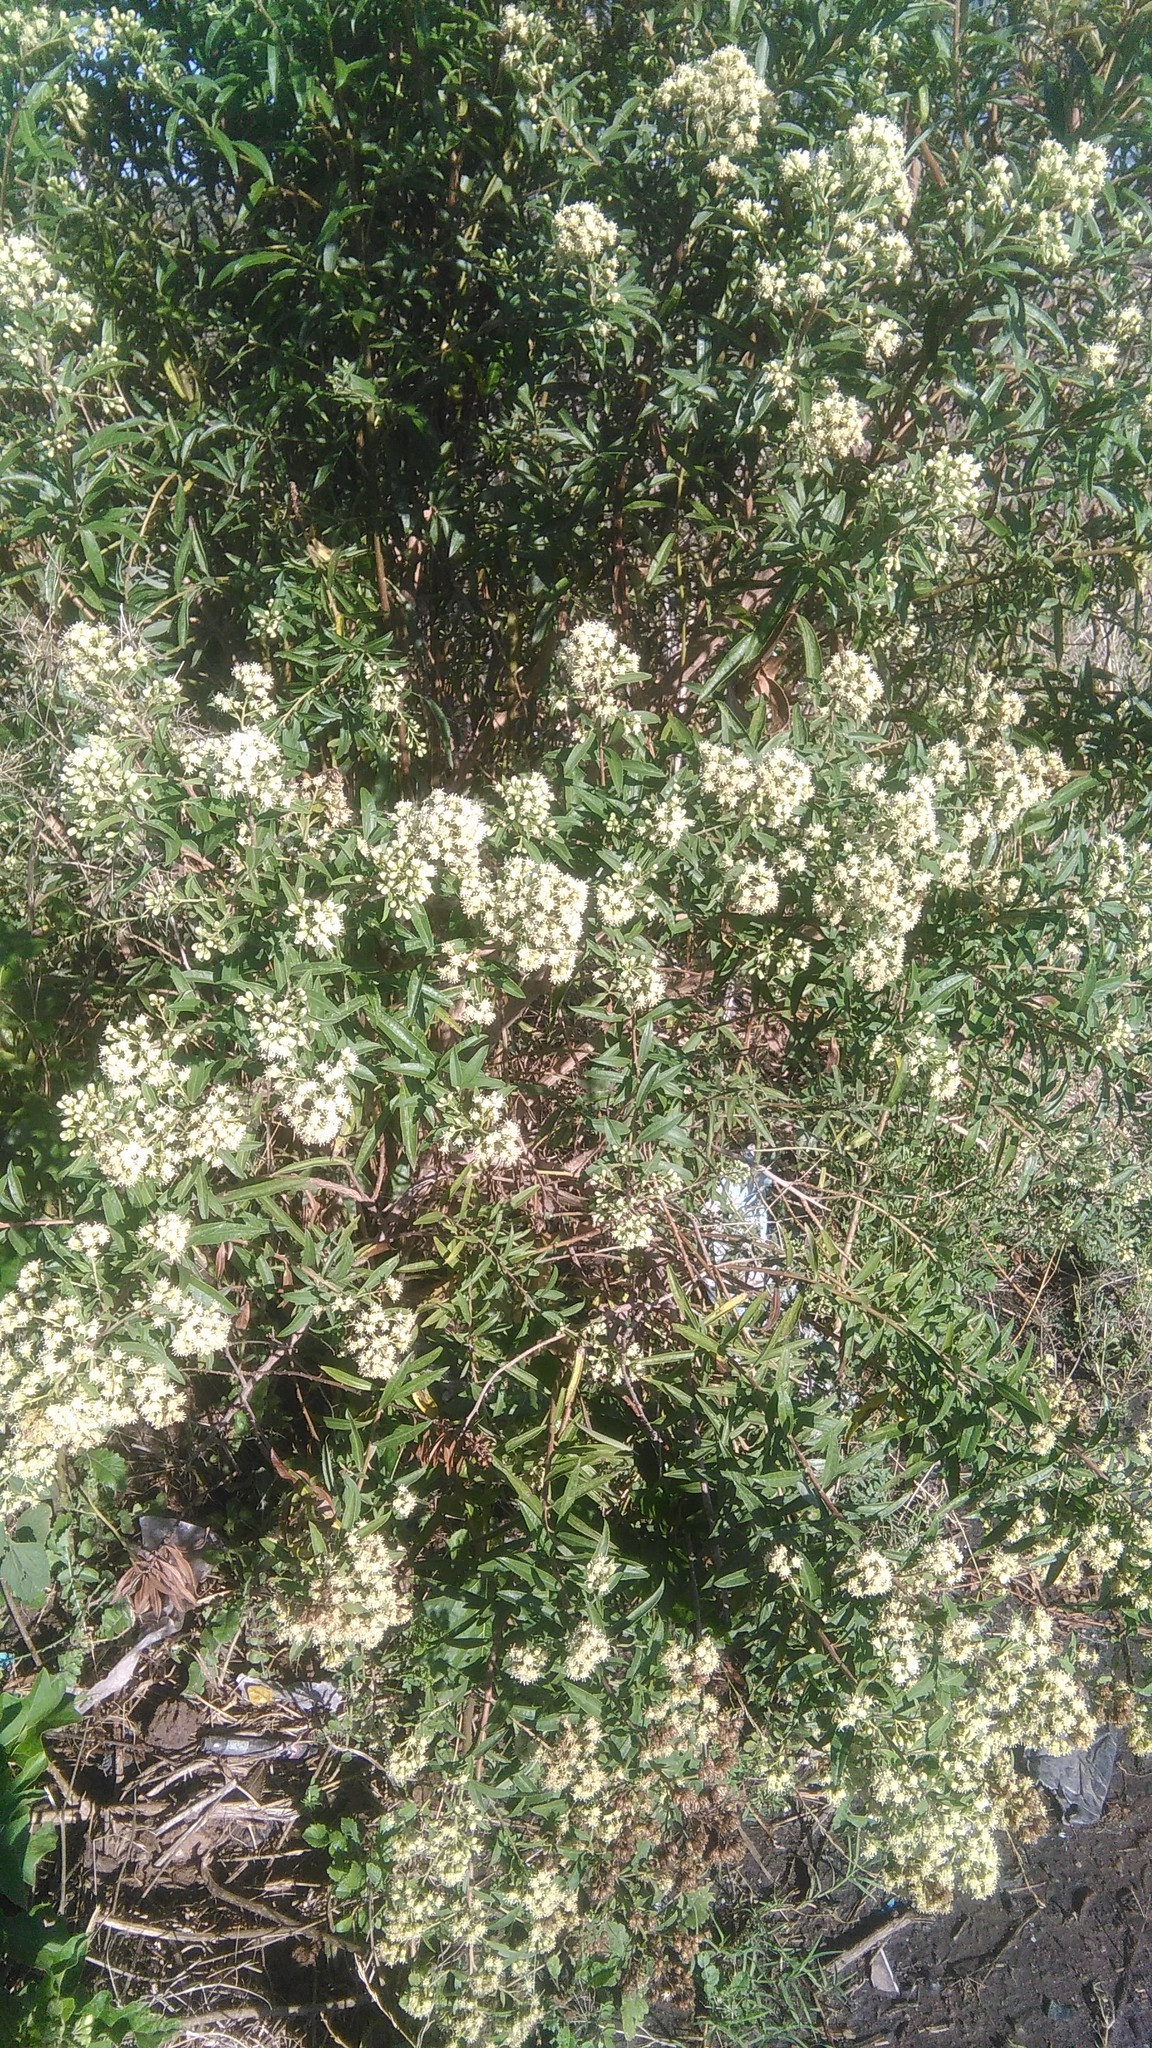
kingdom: Plantae
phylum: Tracheophyta
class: Magnoliopsida
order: Asterales
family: Asteraceae
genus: Baccharis
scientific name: Baccharis punctulata
